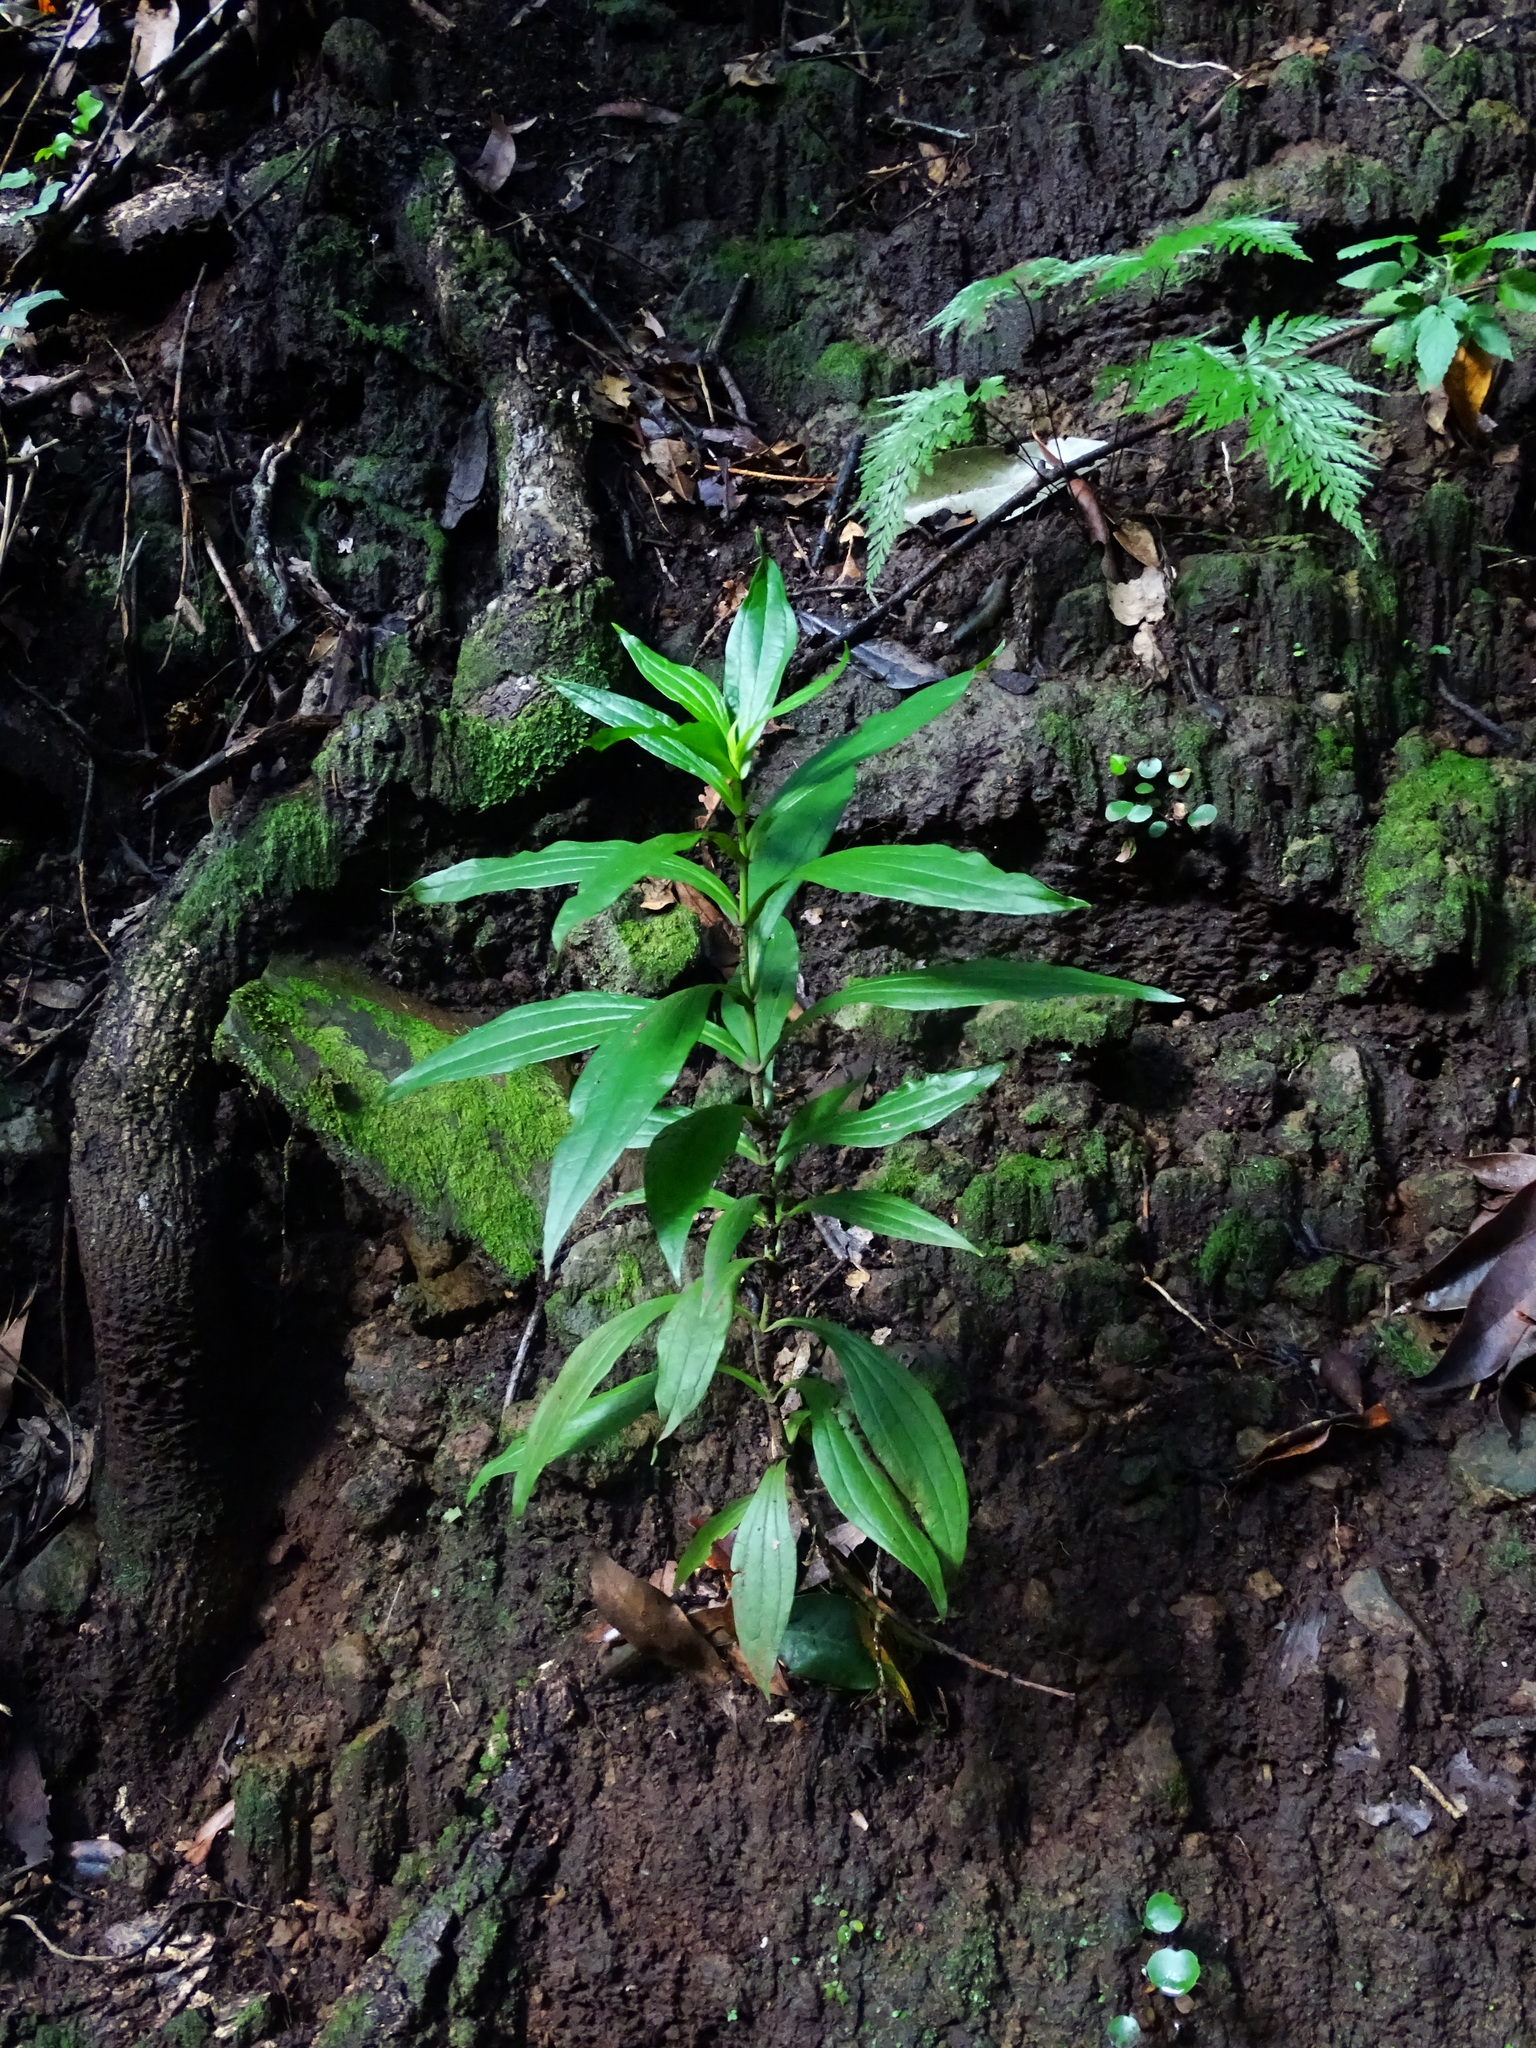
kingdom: Plantae
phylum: Tracheophyta
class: Magnoliopsida
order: Gentianales
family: Gentianaceae
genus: Ixanthus
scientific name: Ixanthus viscosus
